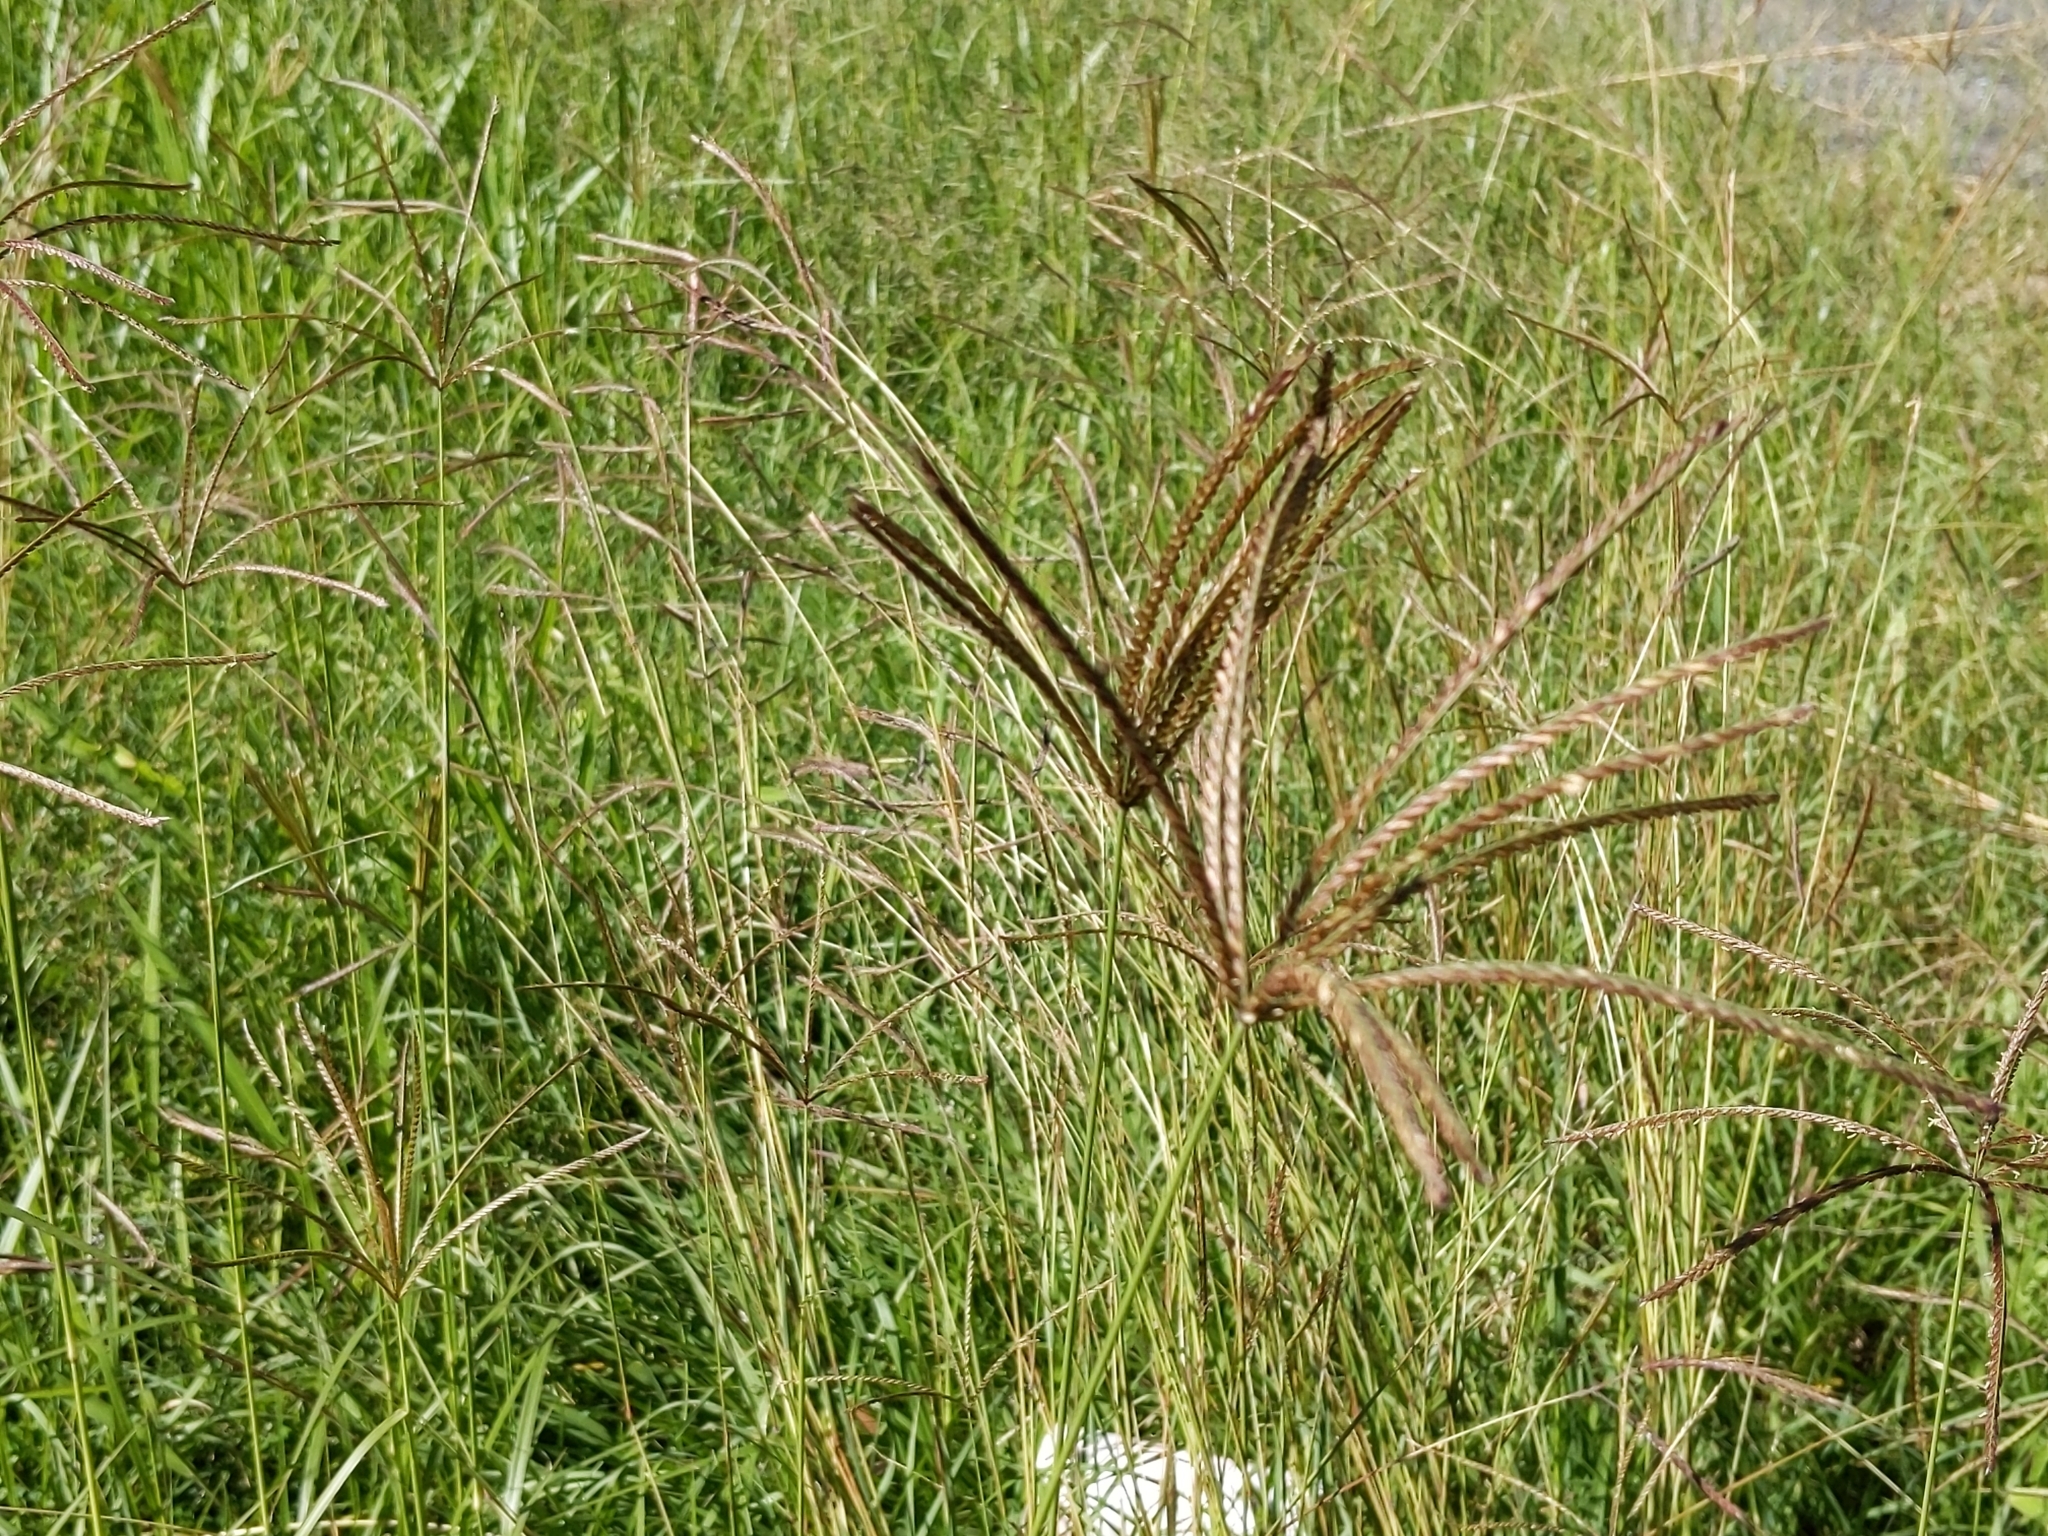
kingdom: Plantae
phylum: Tracheophyta
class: Liliopsida
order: Poales
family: Poaceae
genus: Chloris
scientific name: Chloris gayana
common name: Rhodes grass
